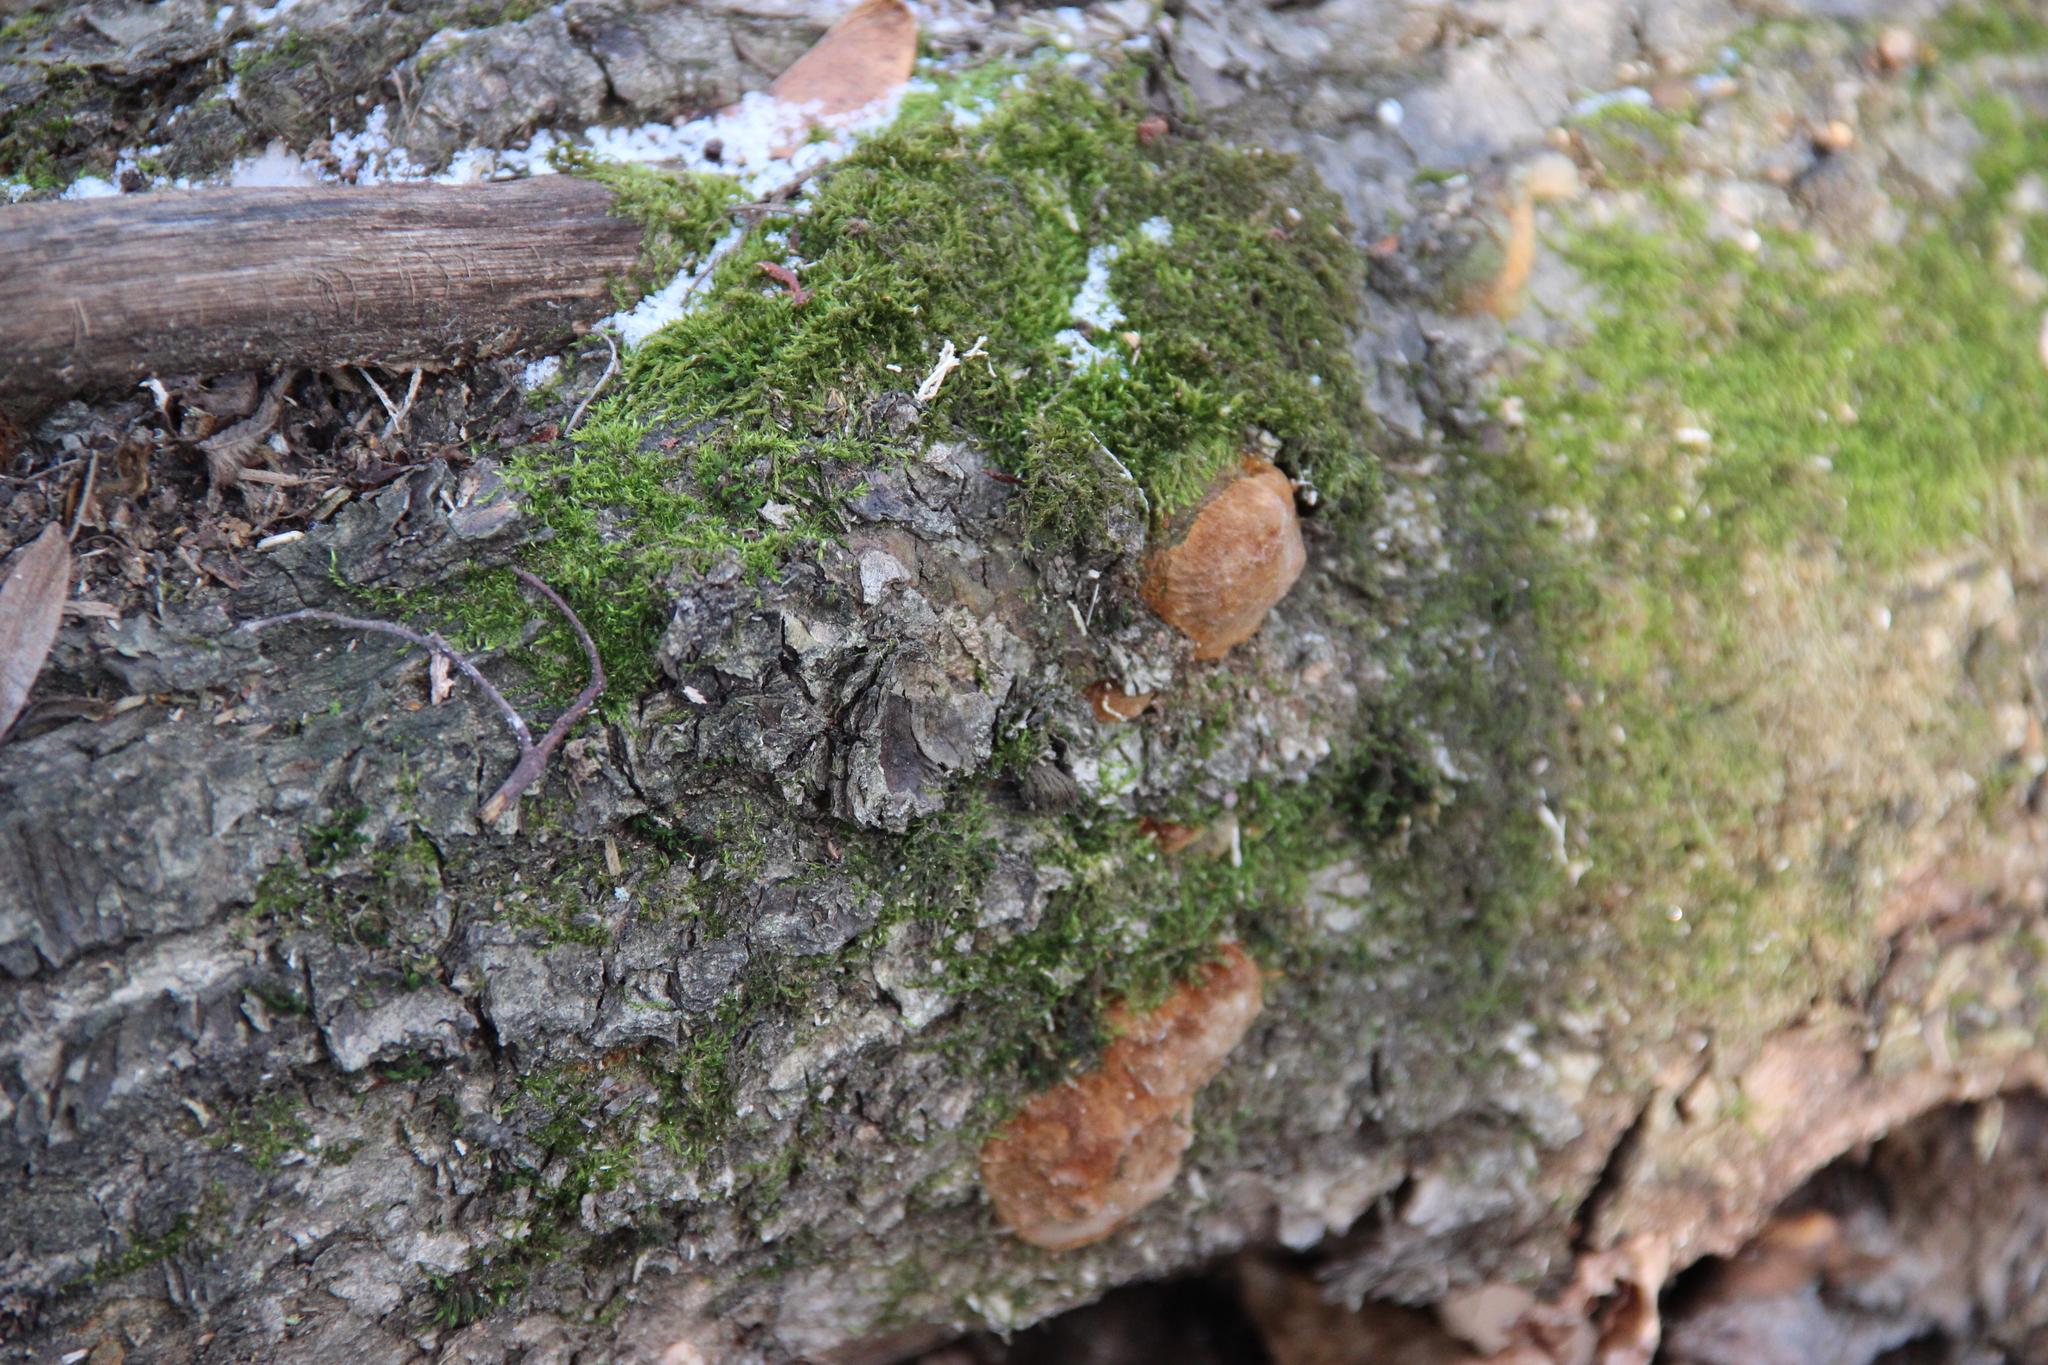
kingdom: Fungi
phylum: Basidiomycota
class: Agaricomycetes
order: Hymenochaetales
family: Hymenochaetaceae
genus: Fomitiporia
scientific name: Fomitiporia robusta
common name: Robust bracket
